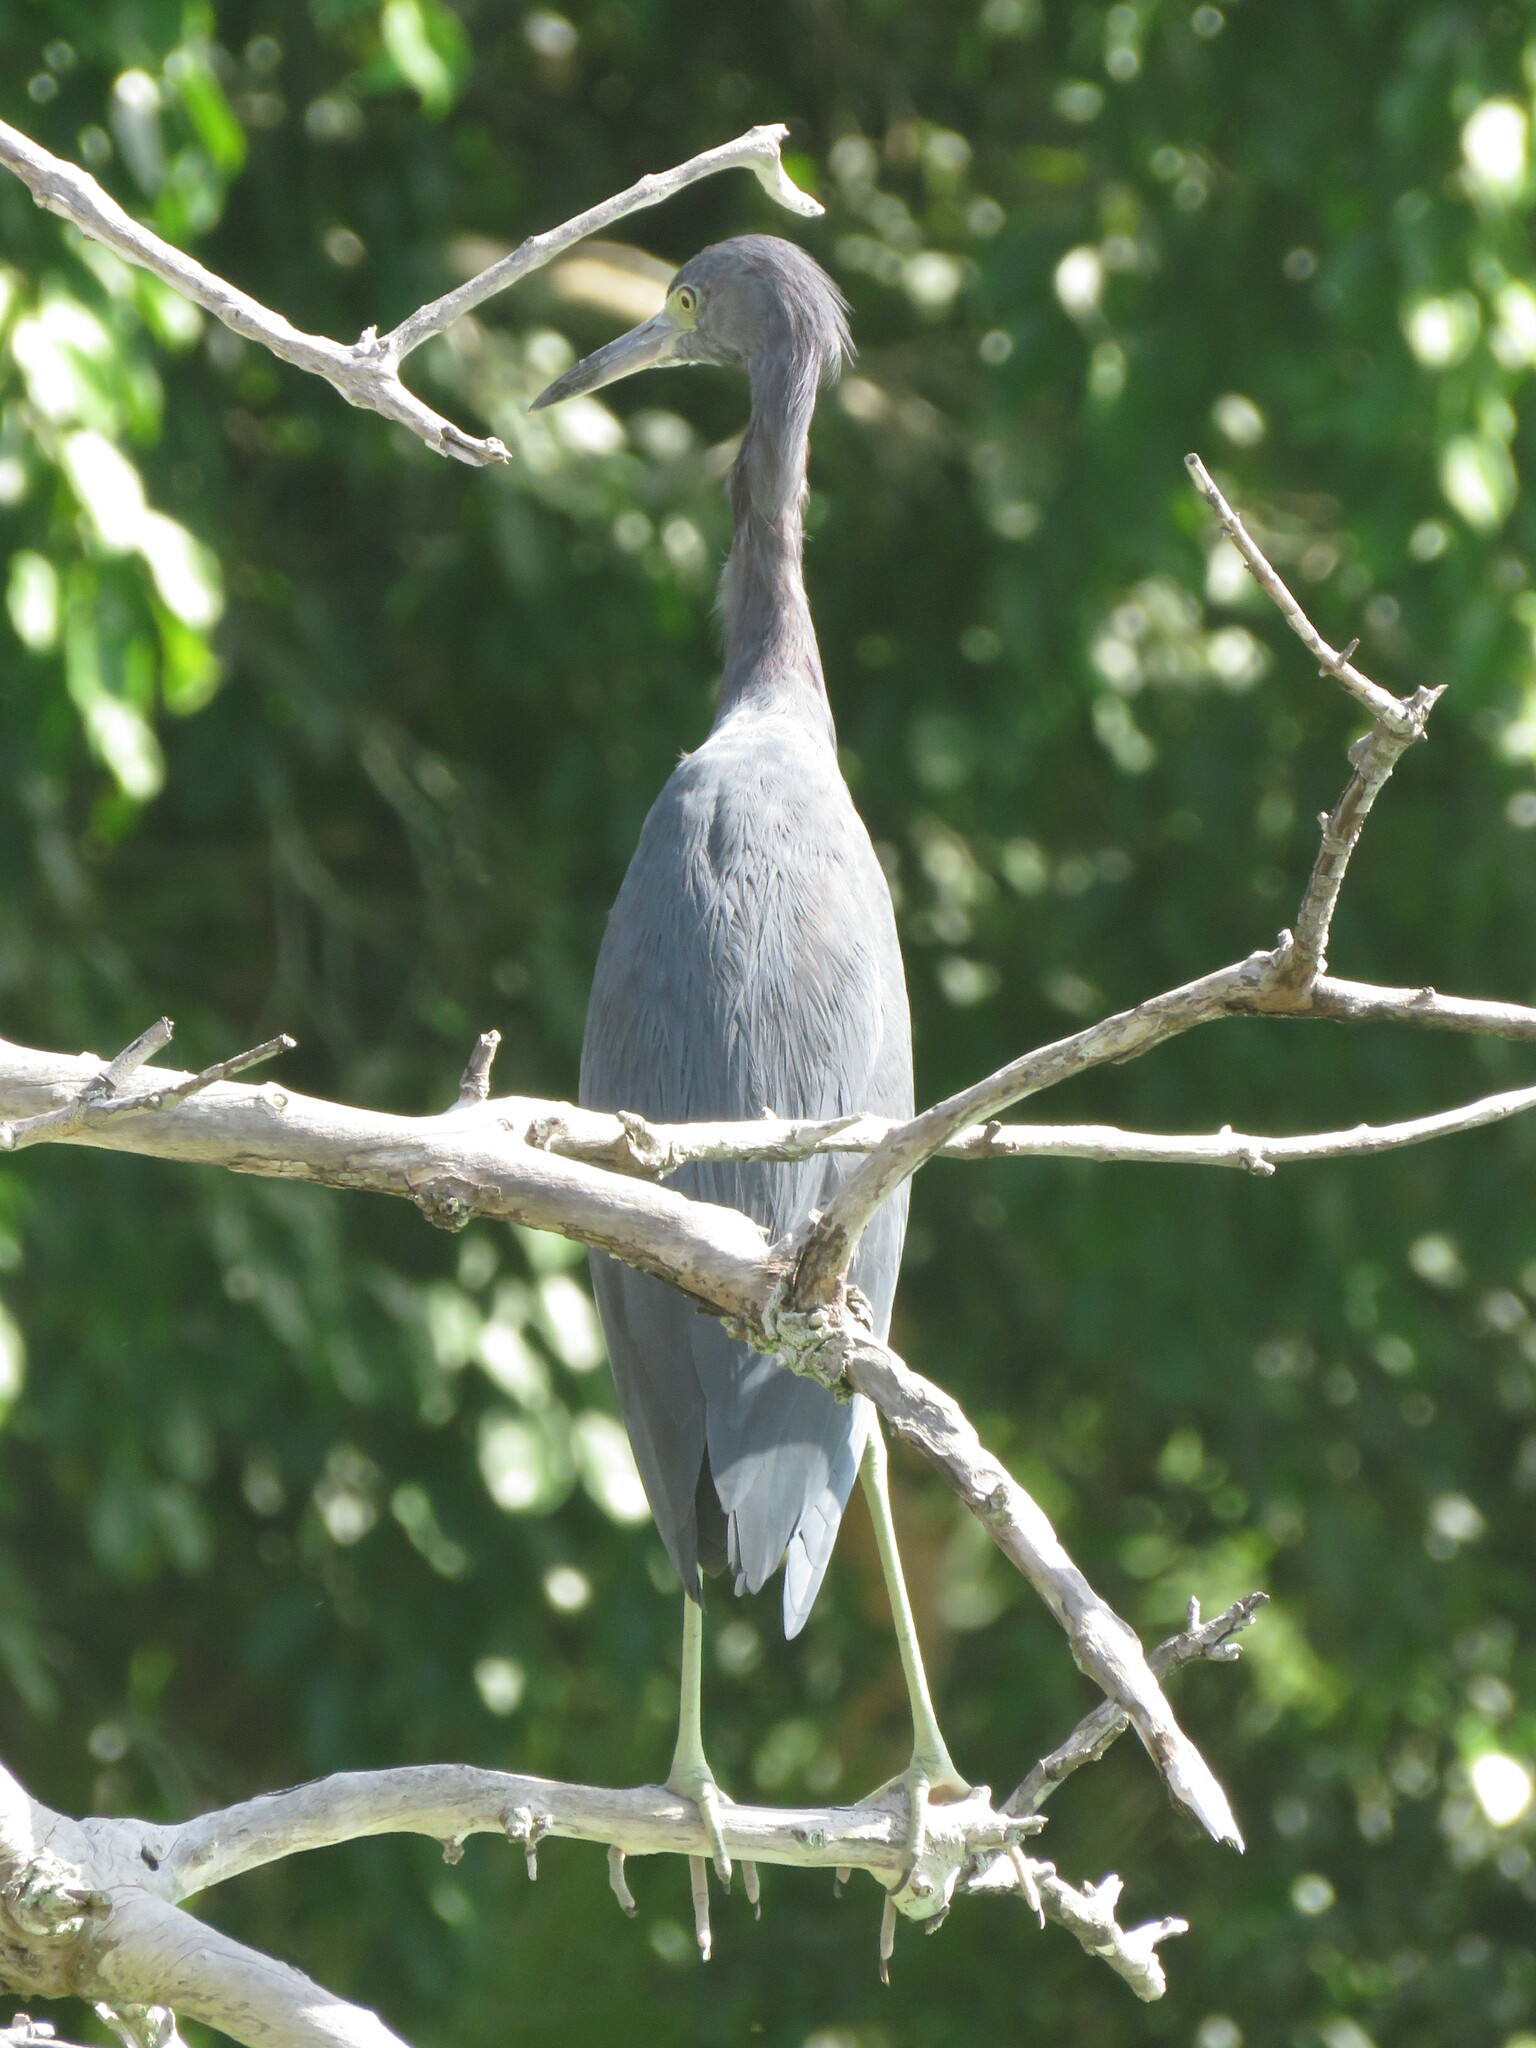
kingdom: Animalia
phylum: Chordata
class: Aves
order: Pelecaniformes
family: Ardeidae
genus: Egretta
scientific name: Egretta caerulea
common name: Little blue heron
